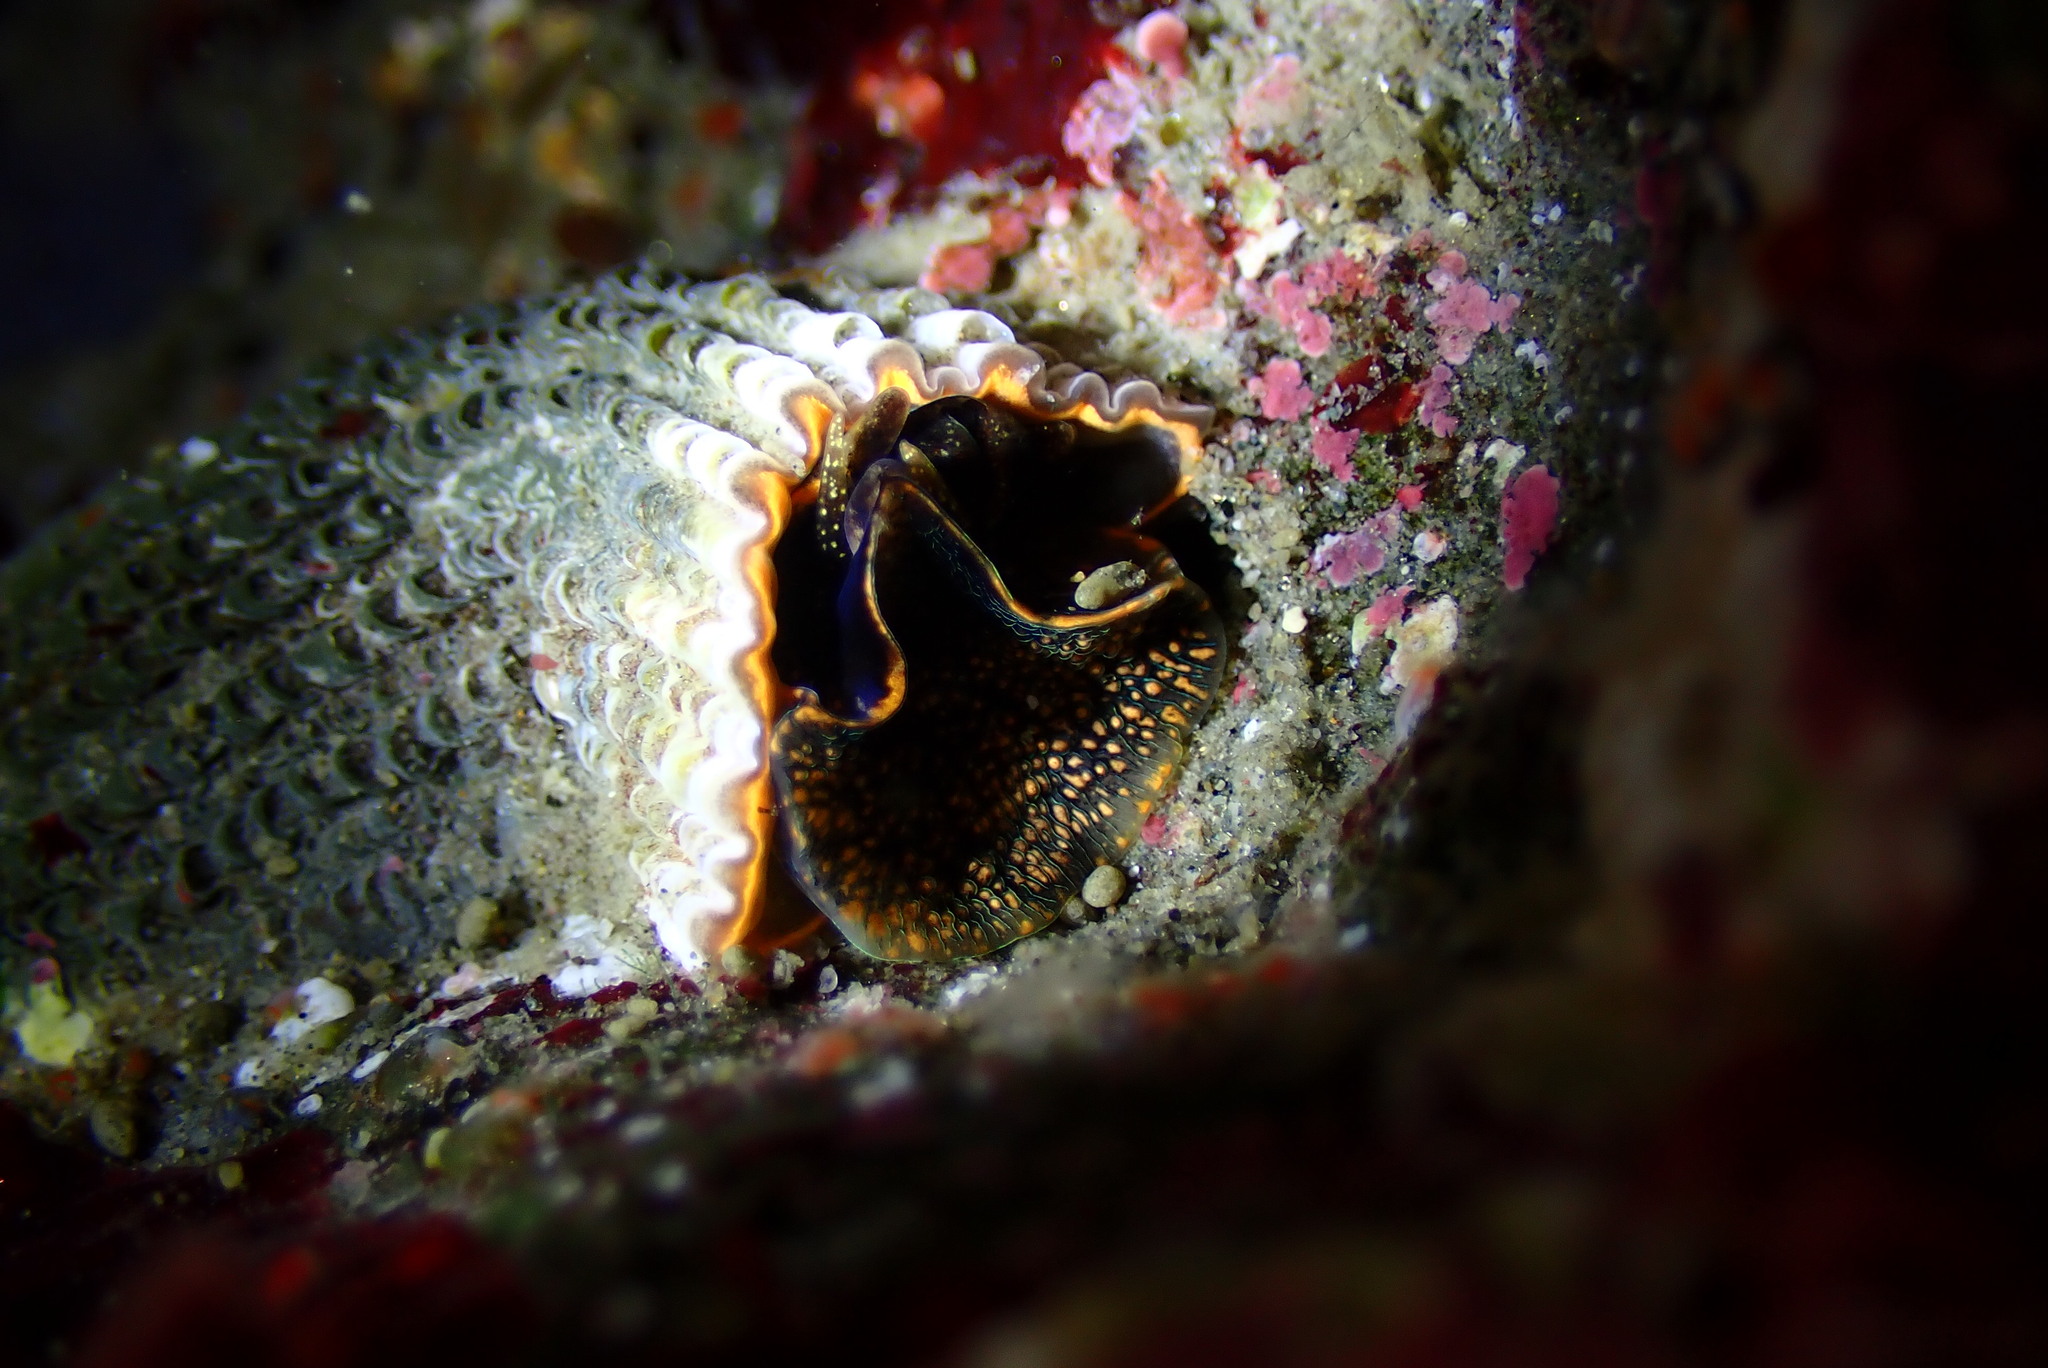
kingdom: Animalia
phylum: Mollusca
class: Gastropoda
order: Littorinimorpha
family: Vermetidae
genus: Thylacodes
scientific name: Thylacodes squamigerus
